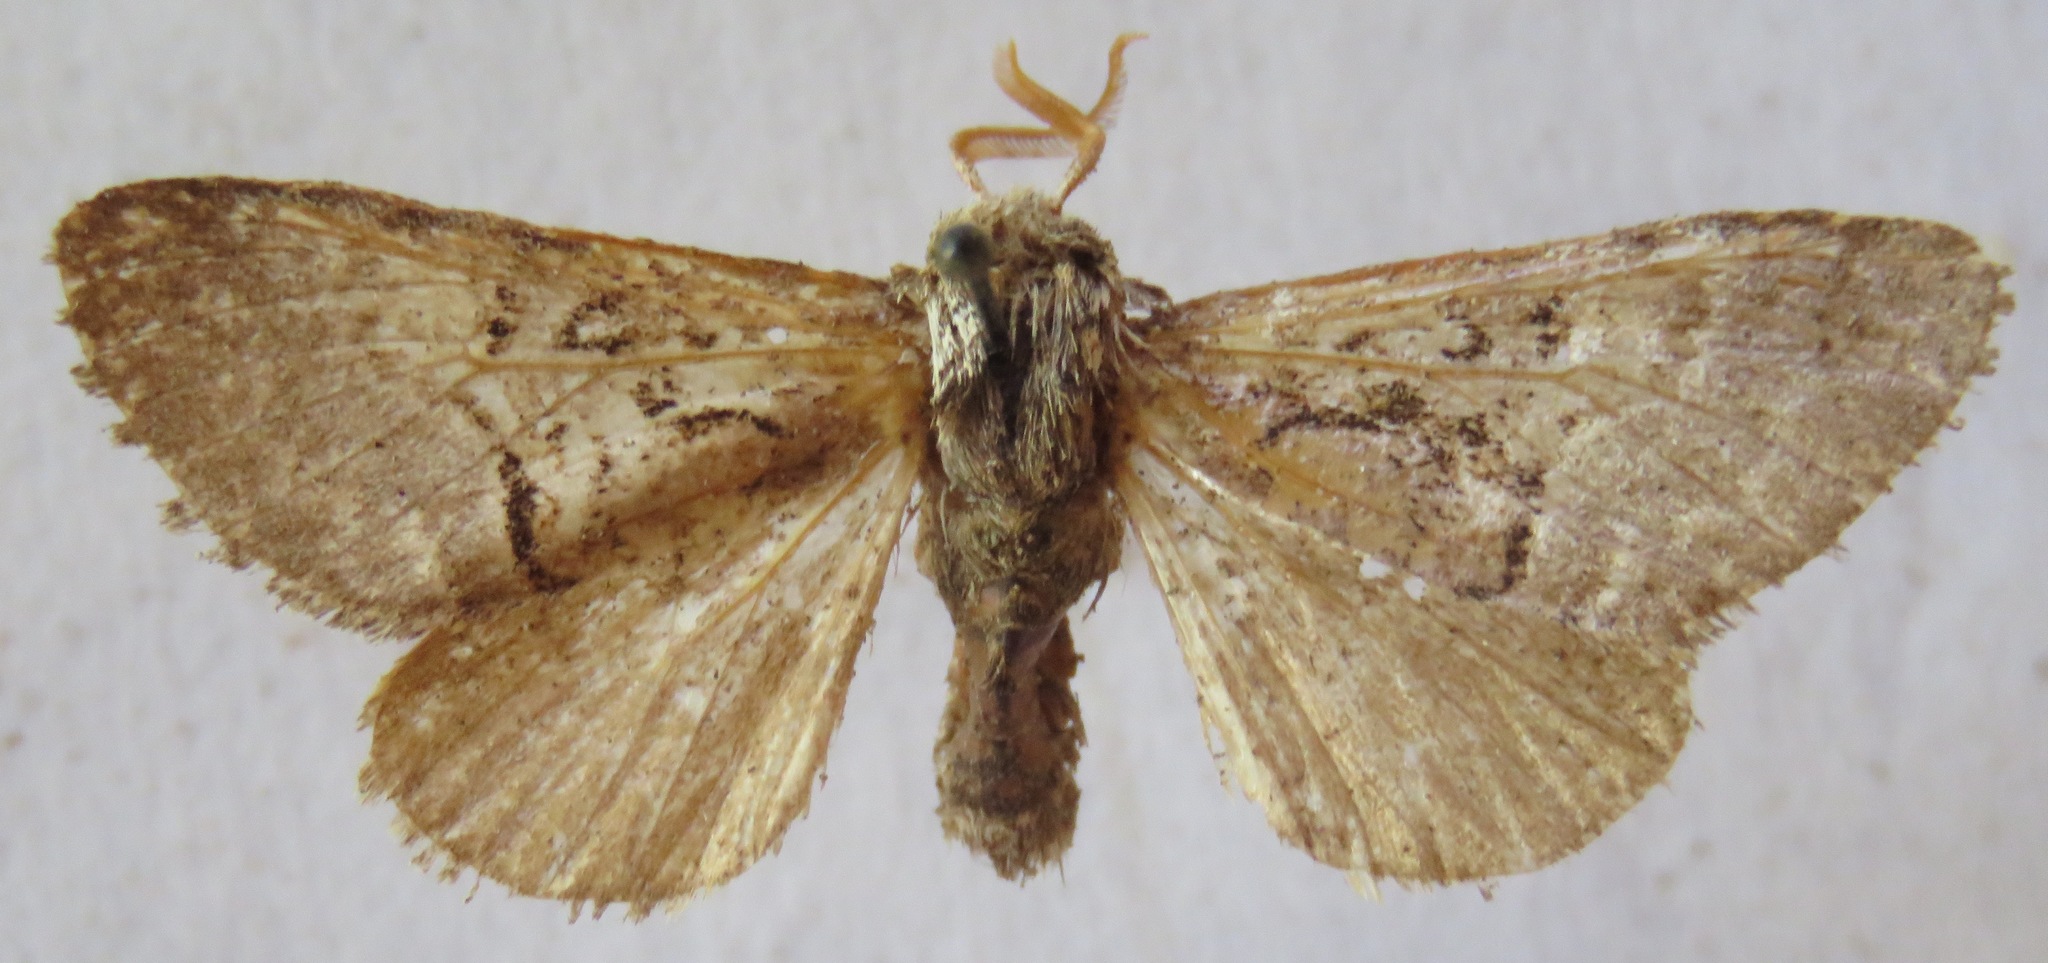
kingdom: Animalia
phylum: Arthropoda
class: Insecta
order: Lepidoptera
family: Noctuidae
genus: Colocasia
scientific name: Colocasia coryli
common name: Nut-tree tussock
